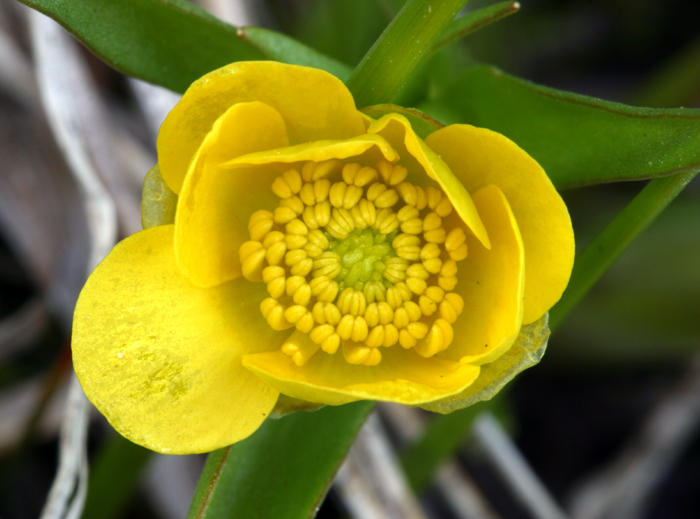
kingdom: Plantae
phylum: Tracheophyta
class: Magnoliopsida
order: Ranunculales
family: Ranunculaceae
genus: Ranunculus
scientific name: Ranunculus alismifolius
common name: Plantain-leaved buttercup
